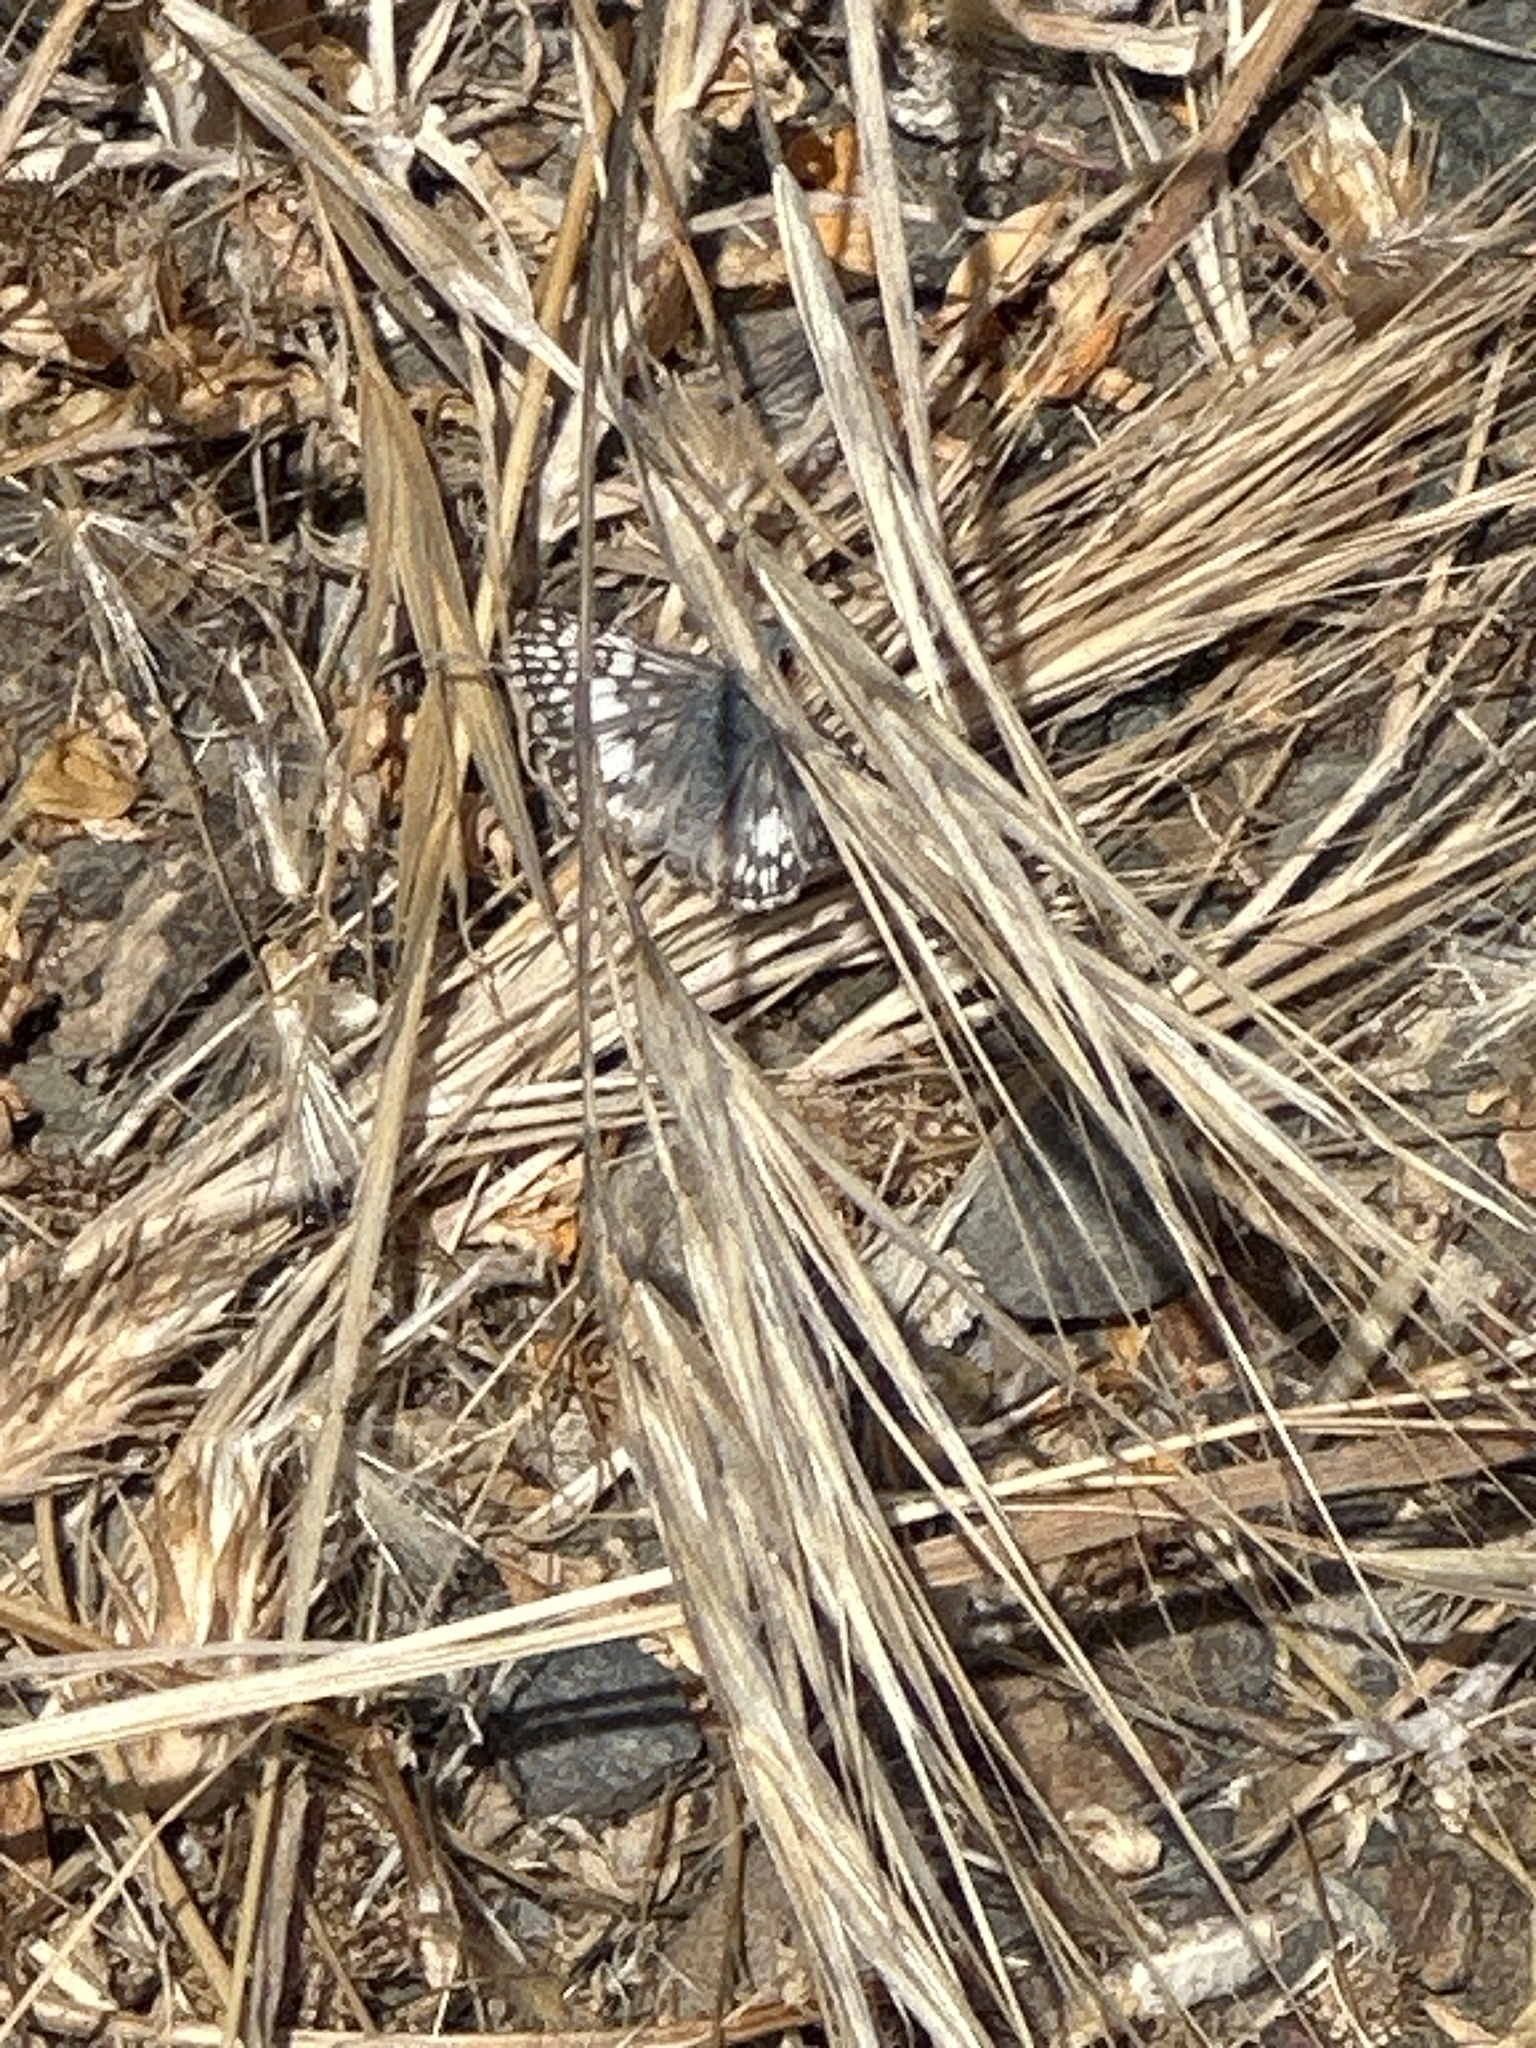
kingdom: Animalia
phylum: Arthropoda
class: Insecta
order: Lepidoptera
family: Hesperiidae
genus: Burnsius
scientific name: Burnsius communis
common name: Common checkered-skipper
